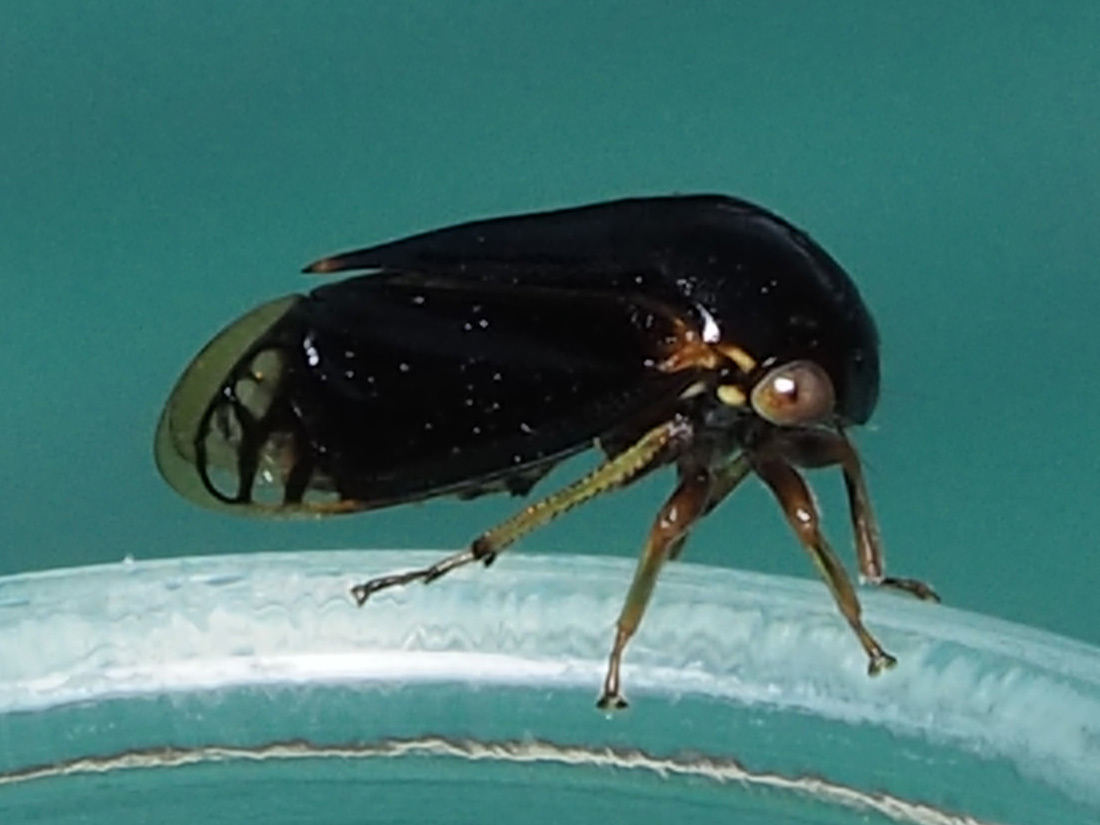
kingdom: Animalia
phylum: Arthropoda
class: Insecta
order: Hemiptera
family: Membracidae
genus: Acutalis
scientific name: Acutalis tartarea
